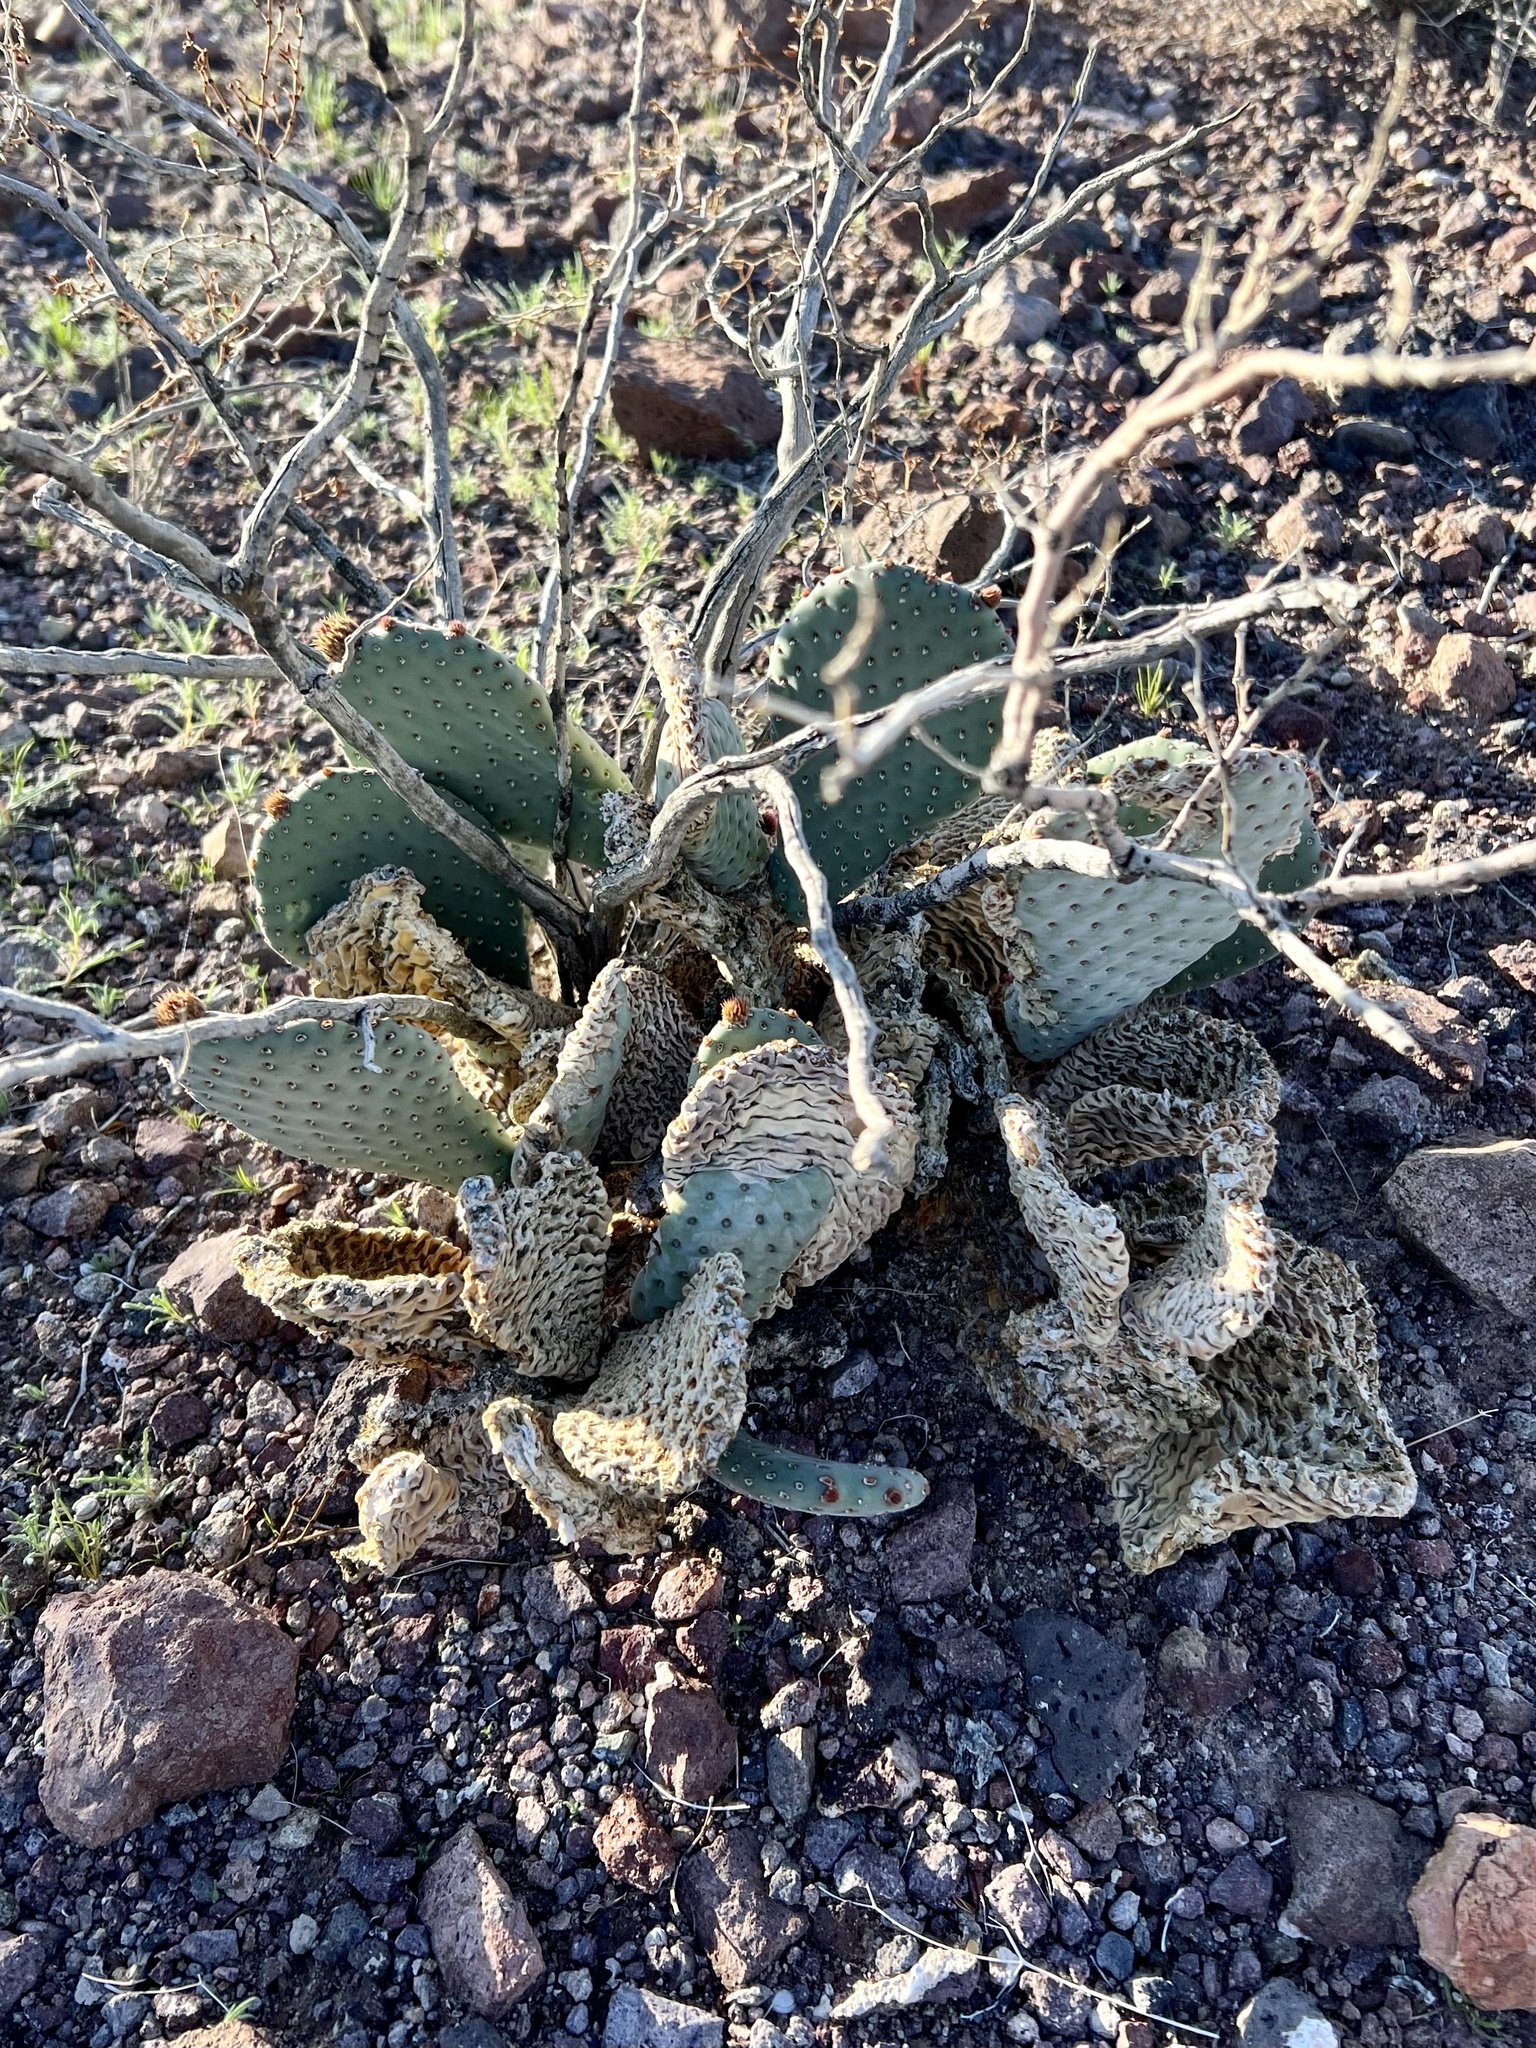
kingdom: Plantae
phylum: Tracheophyta
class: Magnoliopsida
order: Caryophyllales
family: Cactaceae
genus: Opuntia
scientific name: Opuntia basilaris
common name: Beavertail prickly-pear
